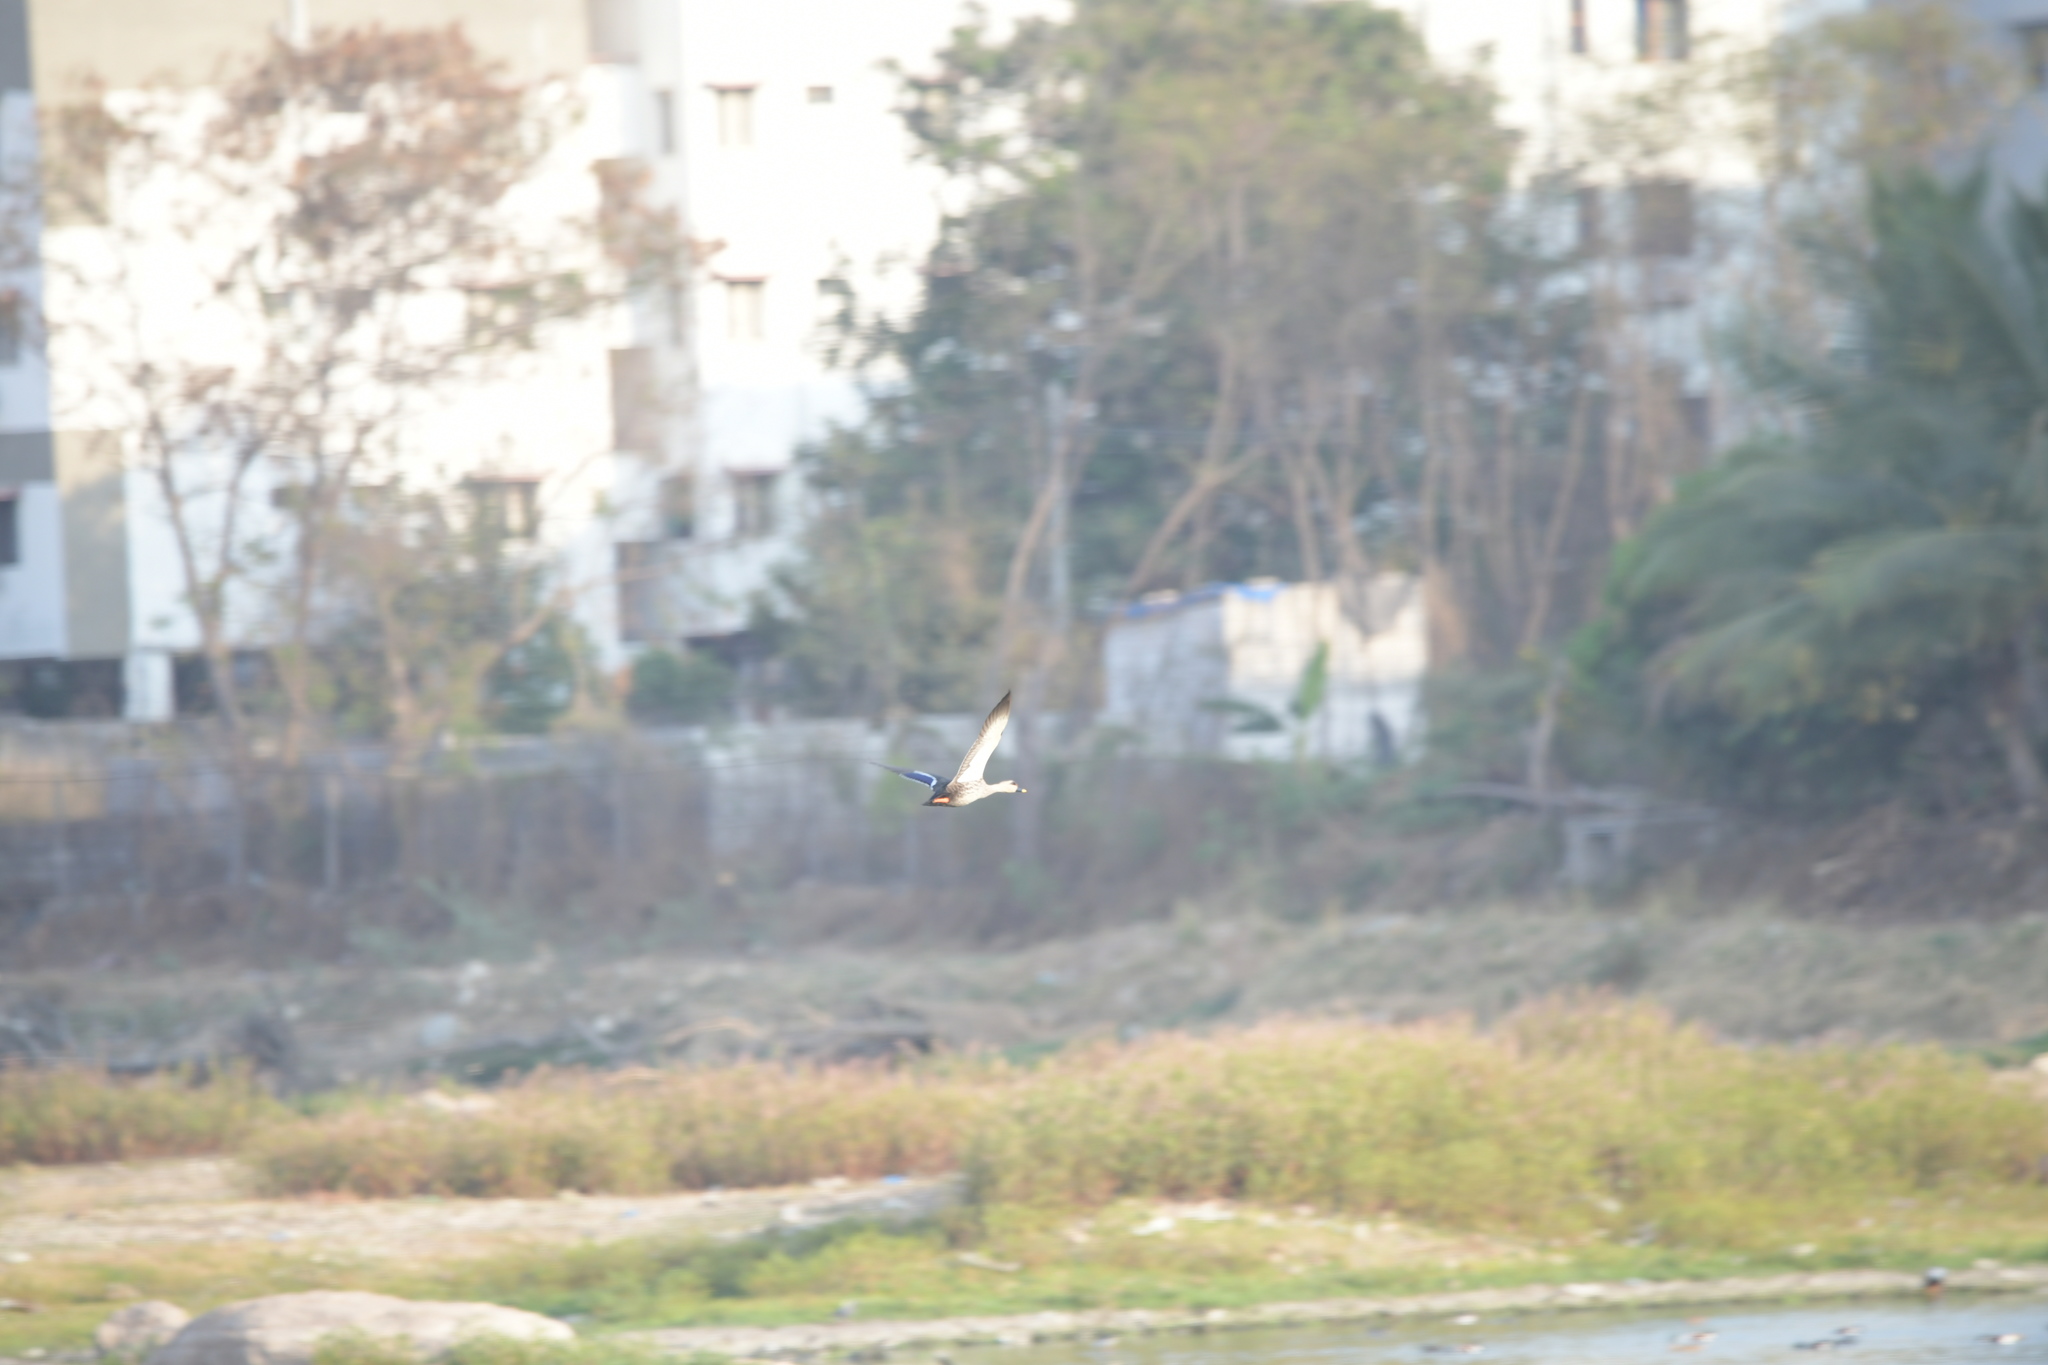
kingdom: Animalia
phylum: Chordata
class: Aves
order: Anseriformes
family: Anatidae
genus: Anas
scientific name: Anas poecilorhyncha
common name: Indian spot-billed duck
